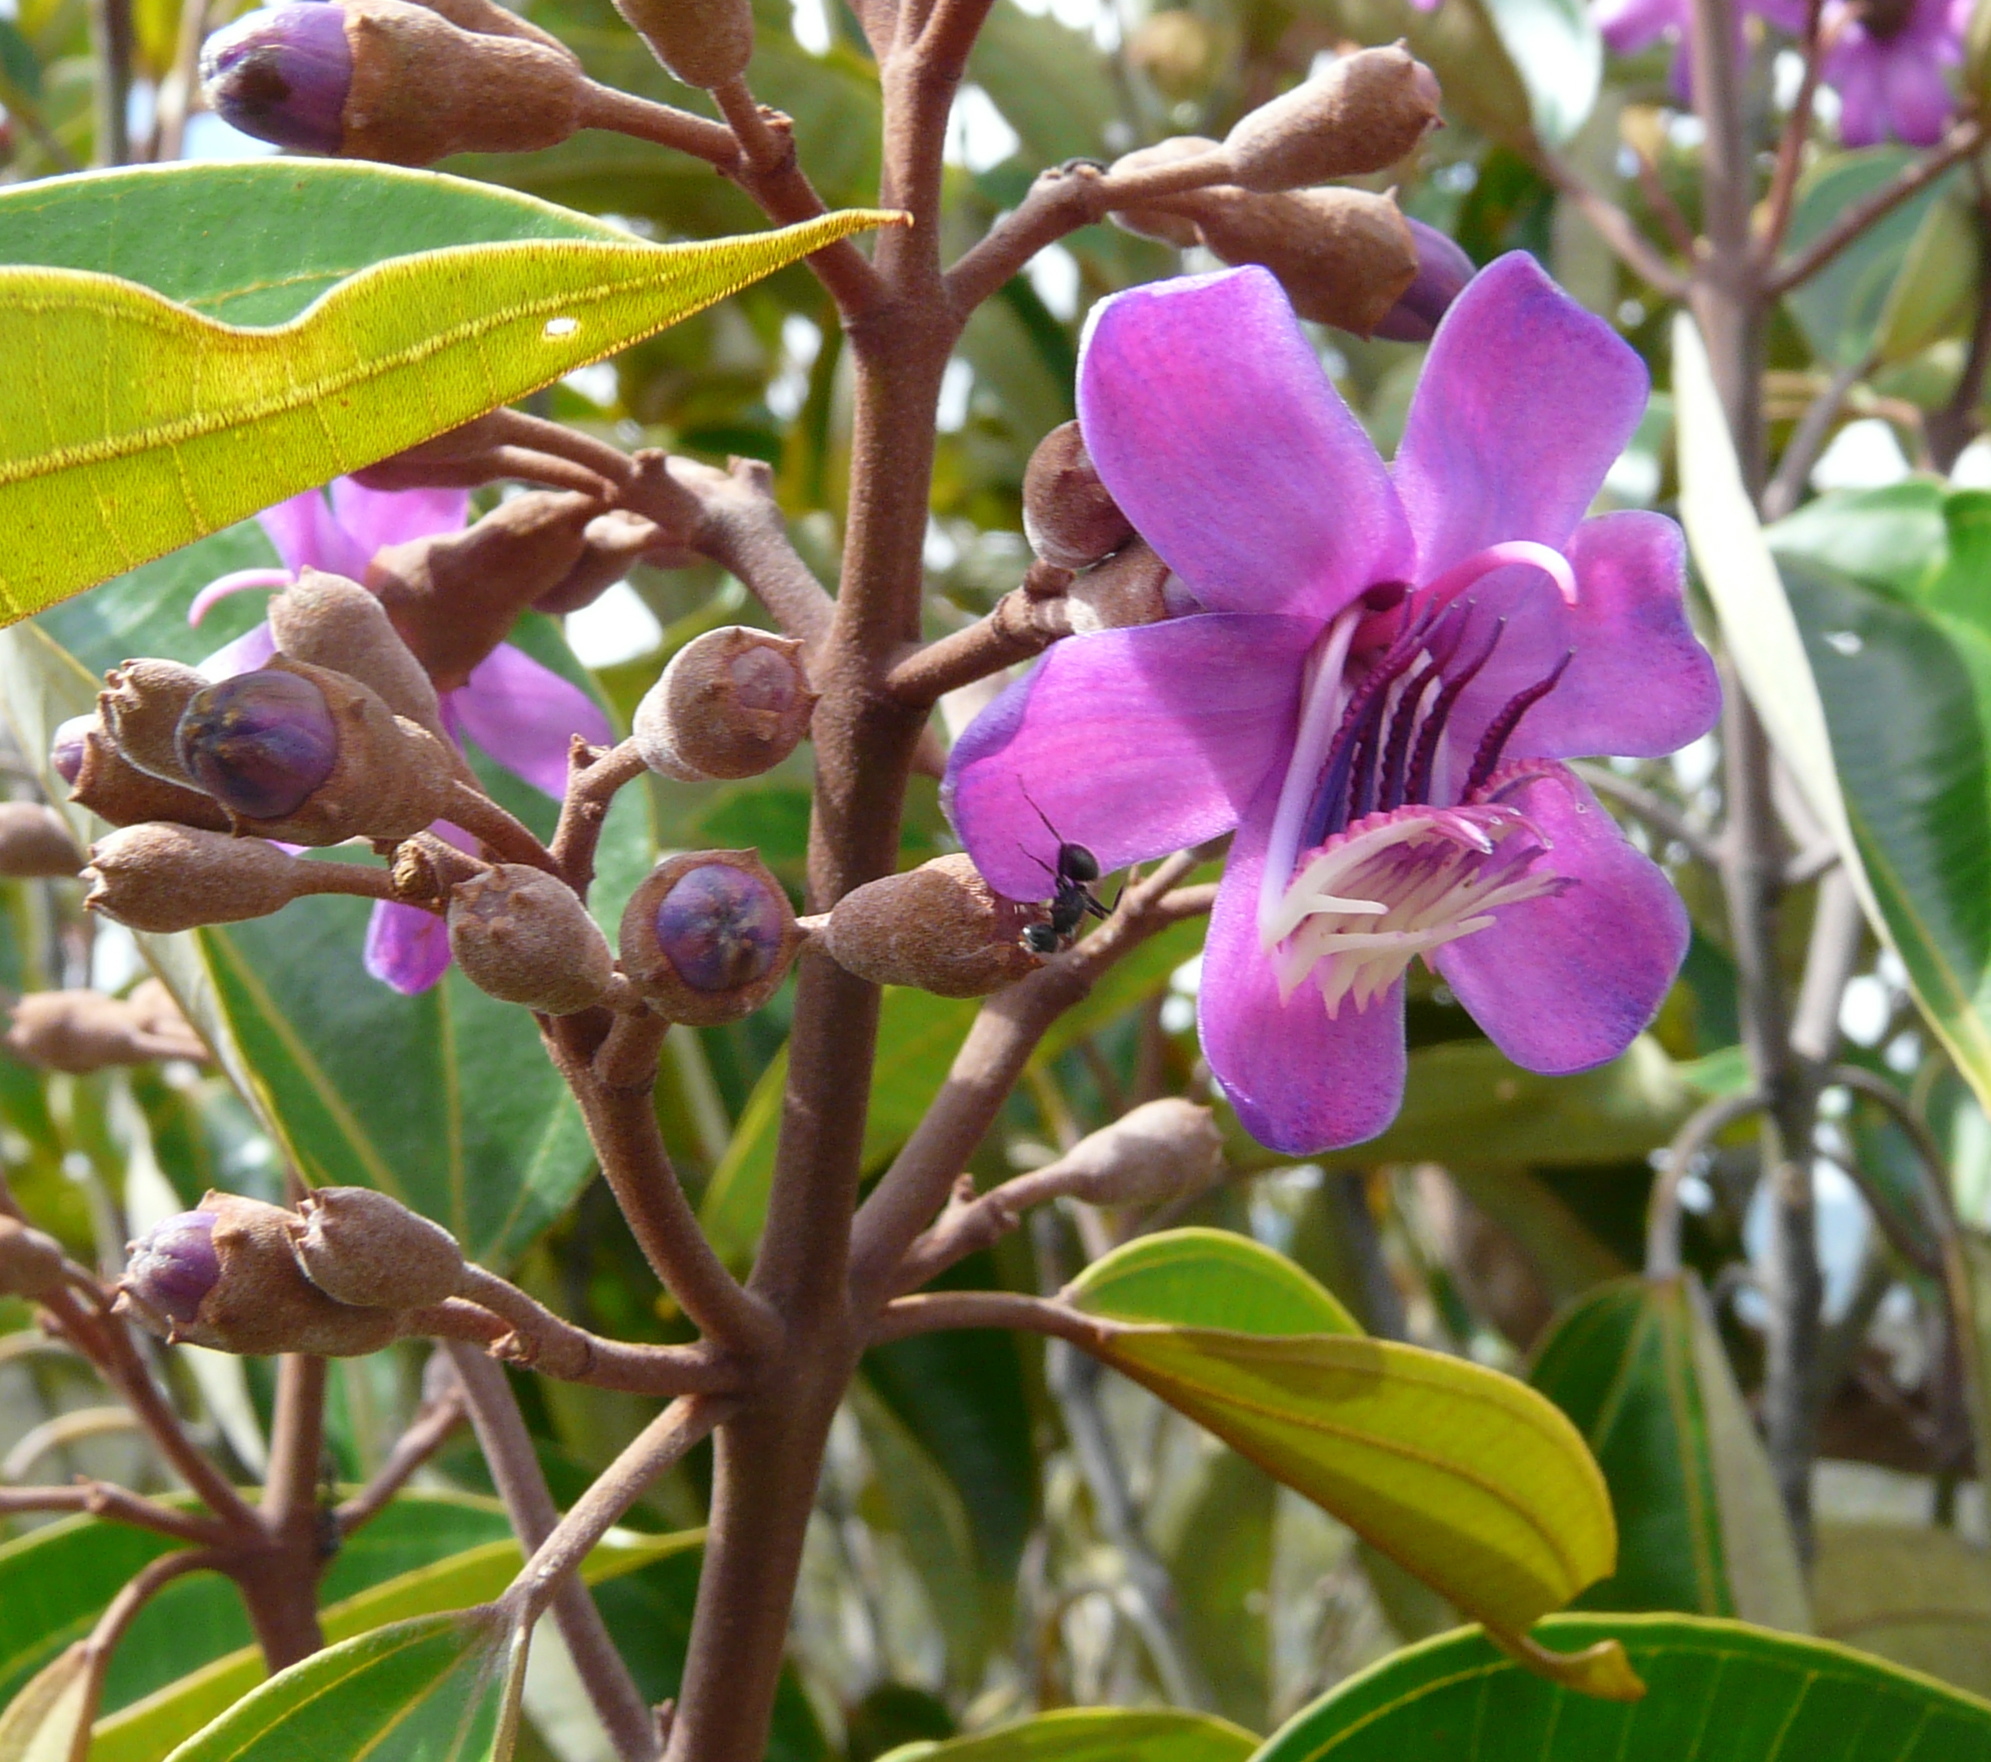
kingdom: Plantae
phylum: Tracheophyta
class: Magnoliopsida
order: Myrtales
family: Melastomataceae
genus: Meriania
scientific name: Meriania urceolata
